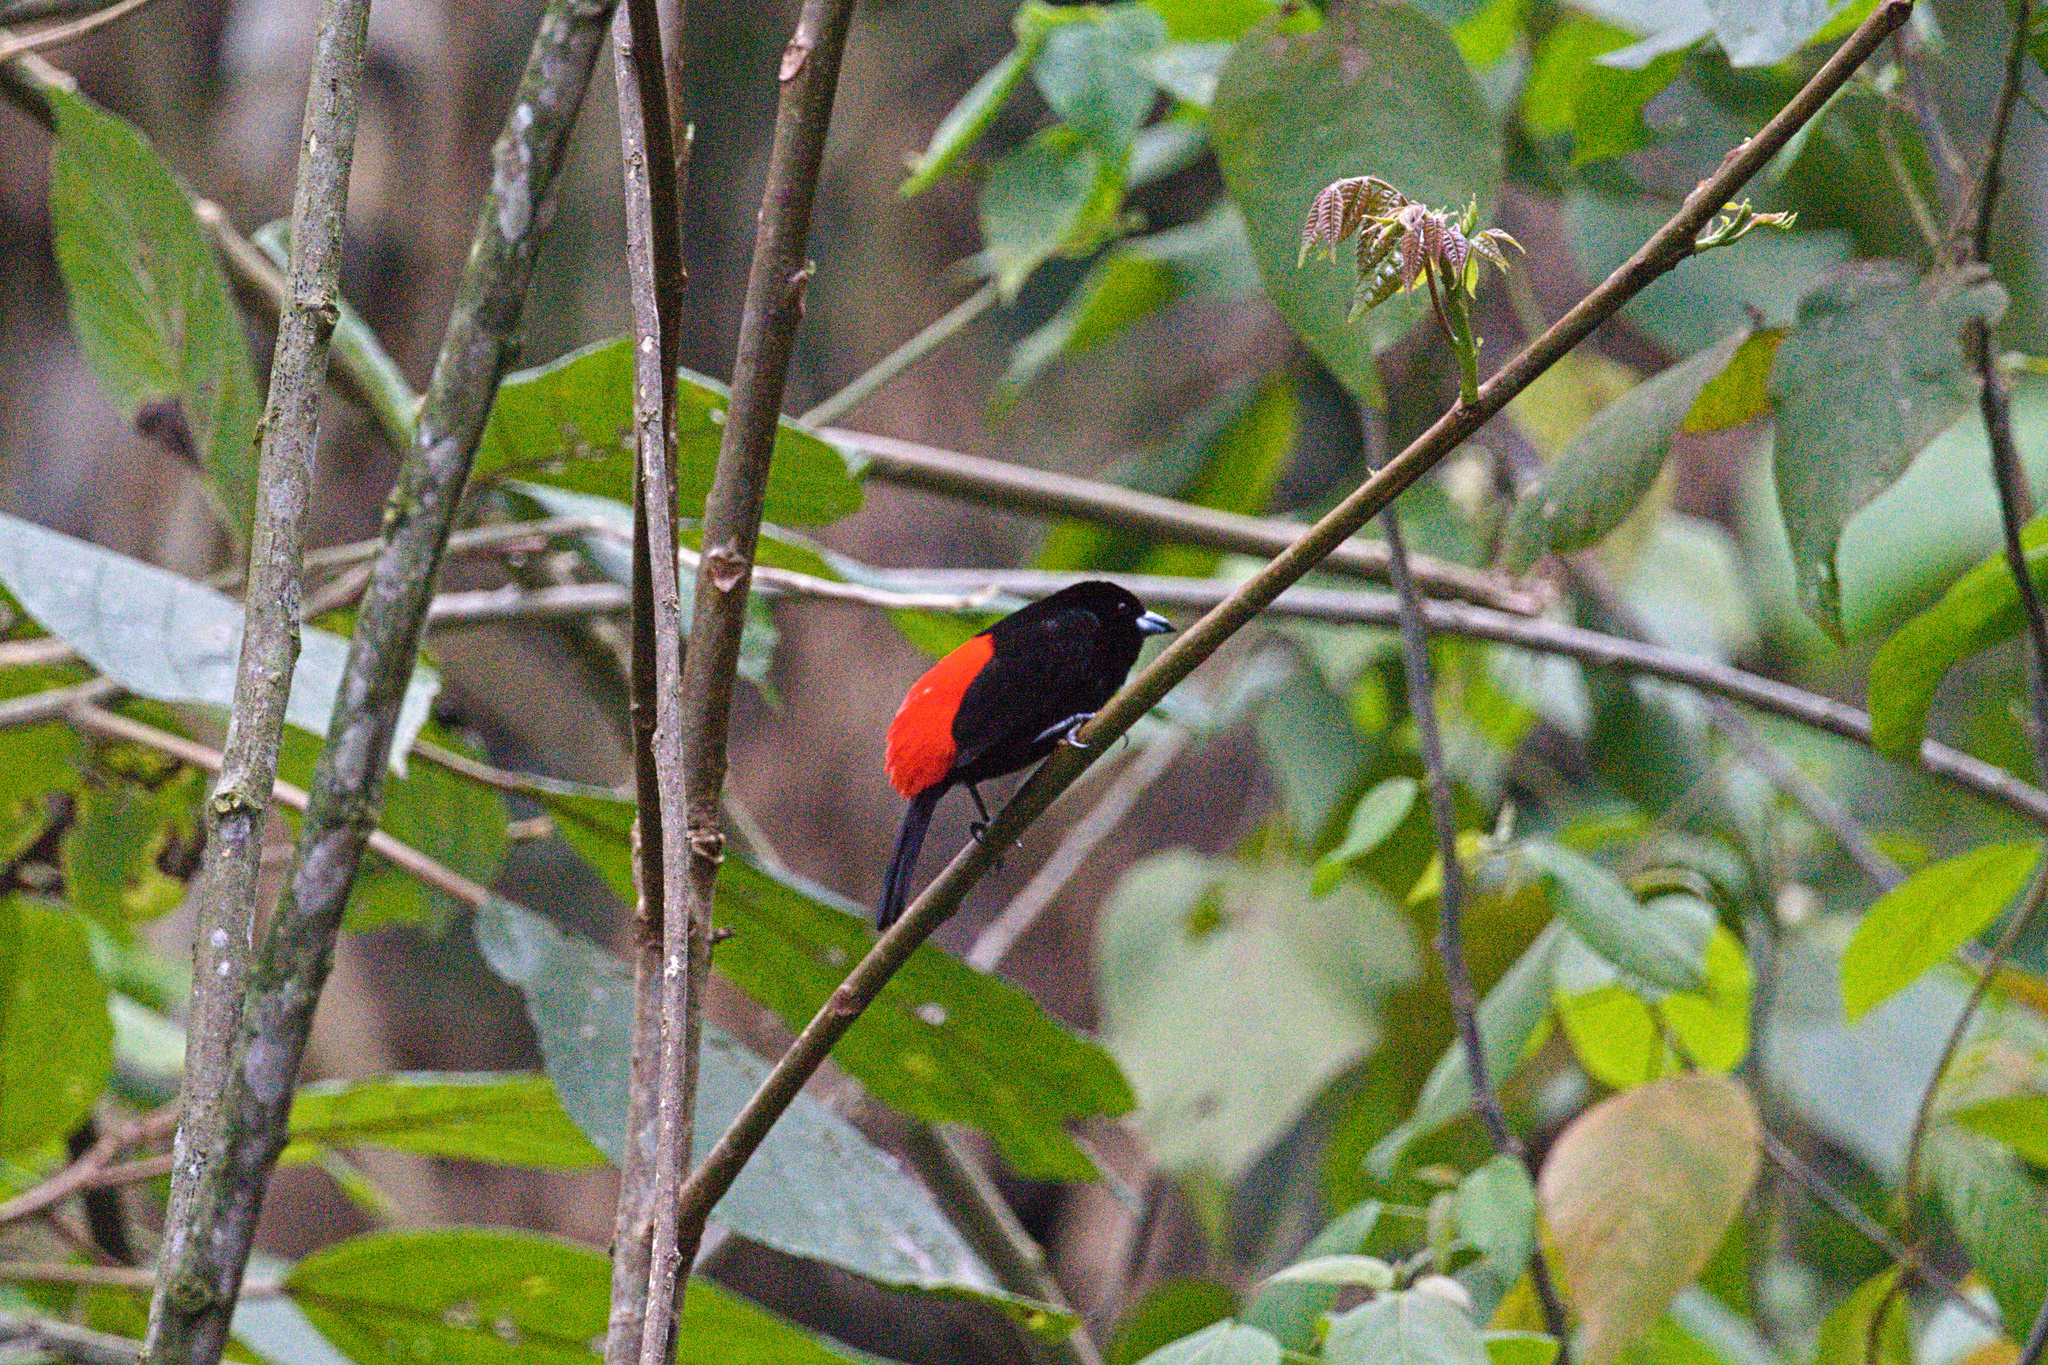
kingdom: Animalia
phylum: Chordata
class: Aves
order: Passeriformes
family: Thraupidae
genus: Ramphocelus
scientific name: Ramphocelus passerinii
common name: Passerini's tanager
